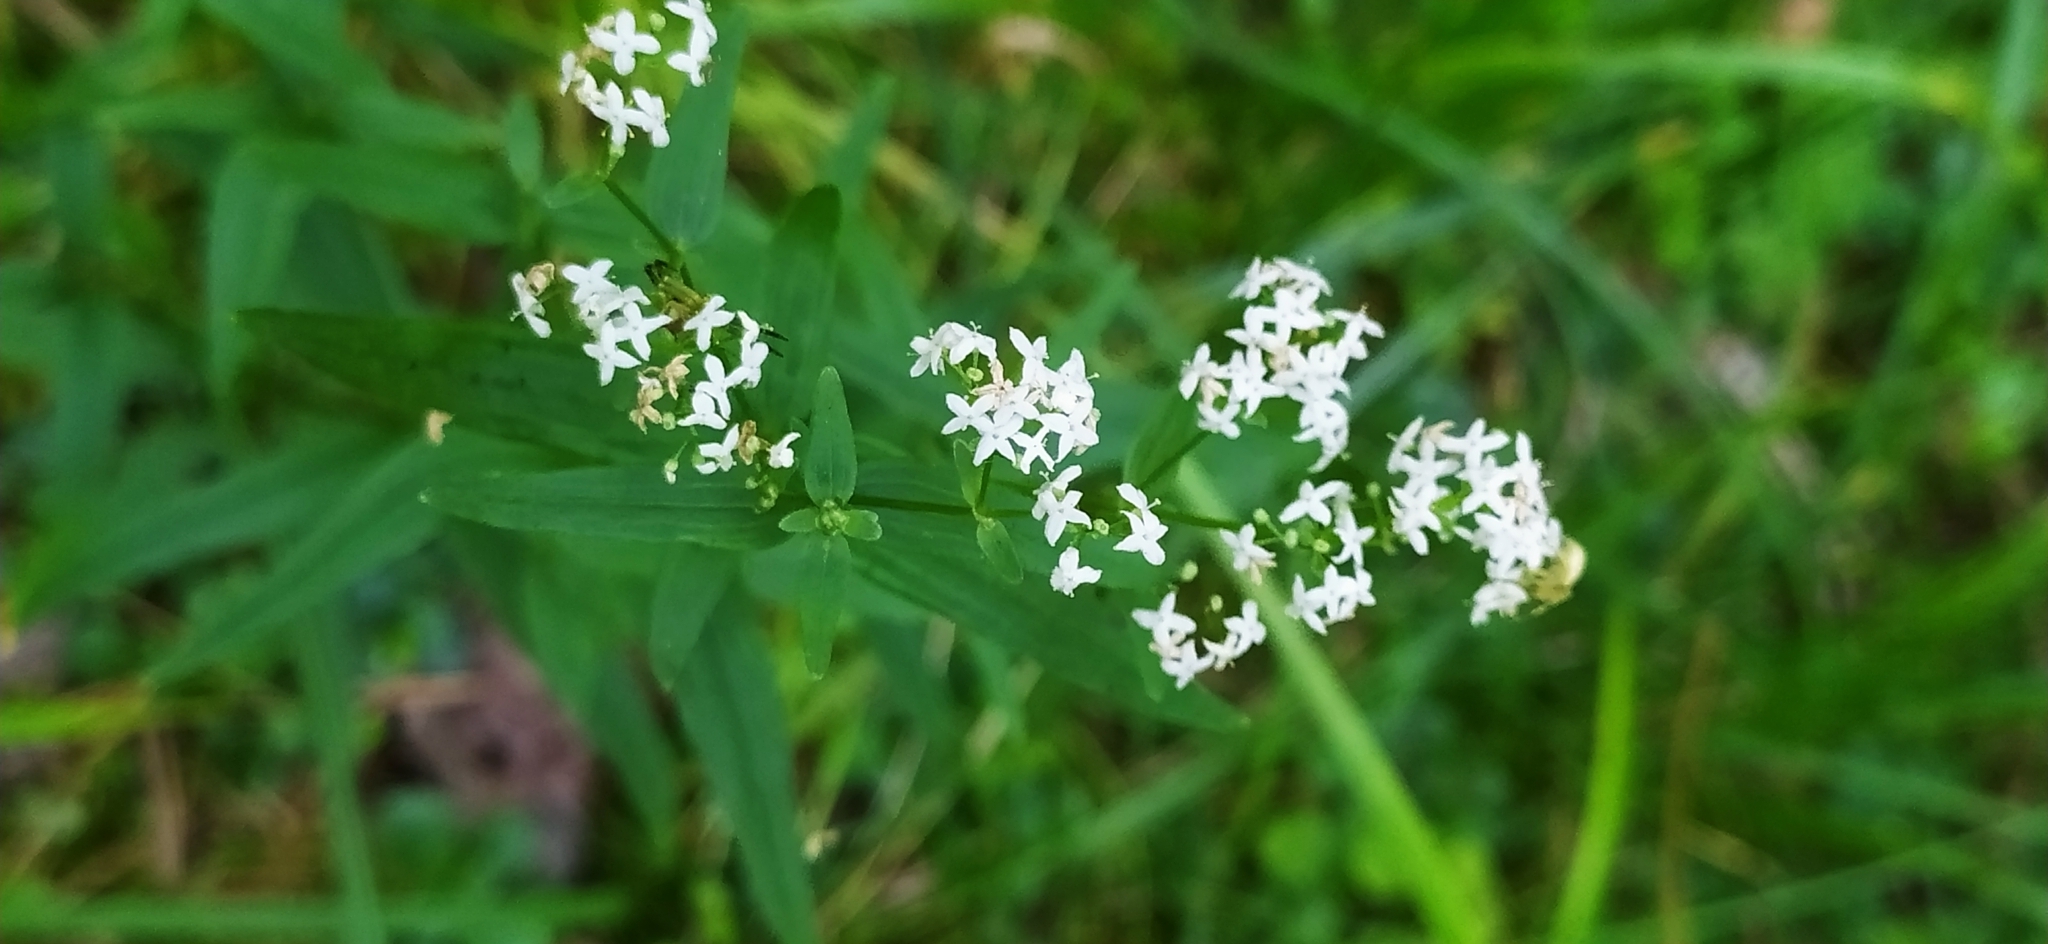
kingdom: Plantae
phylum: Tracheophyta
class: Magnoliopsida
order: Gentianales
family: Rubiaceae
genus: Galium
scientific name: Galium boreale
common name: Northern bedstraw
